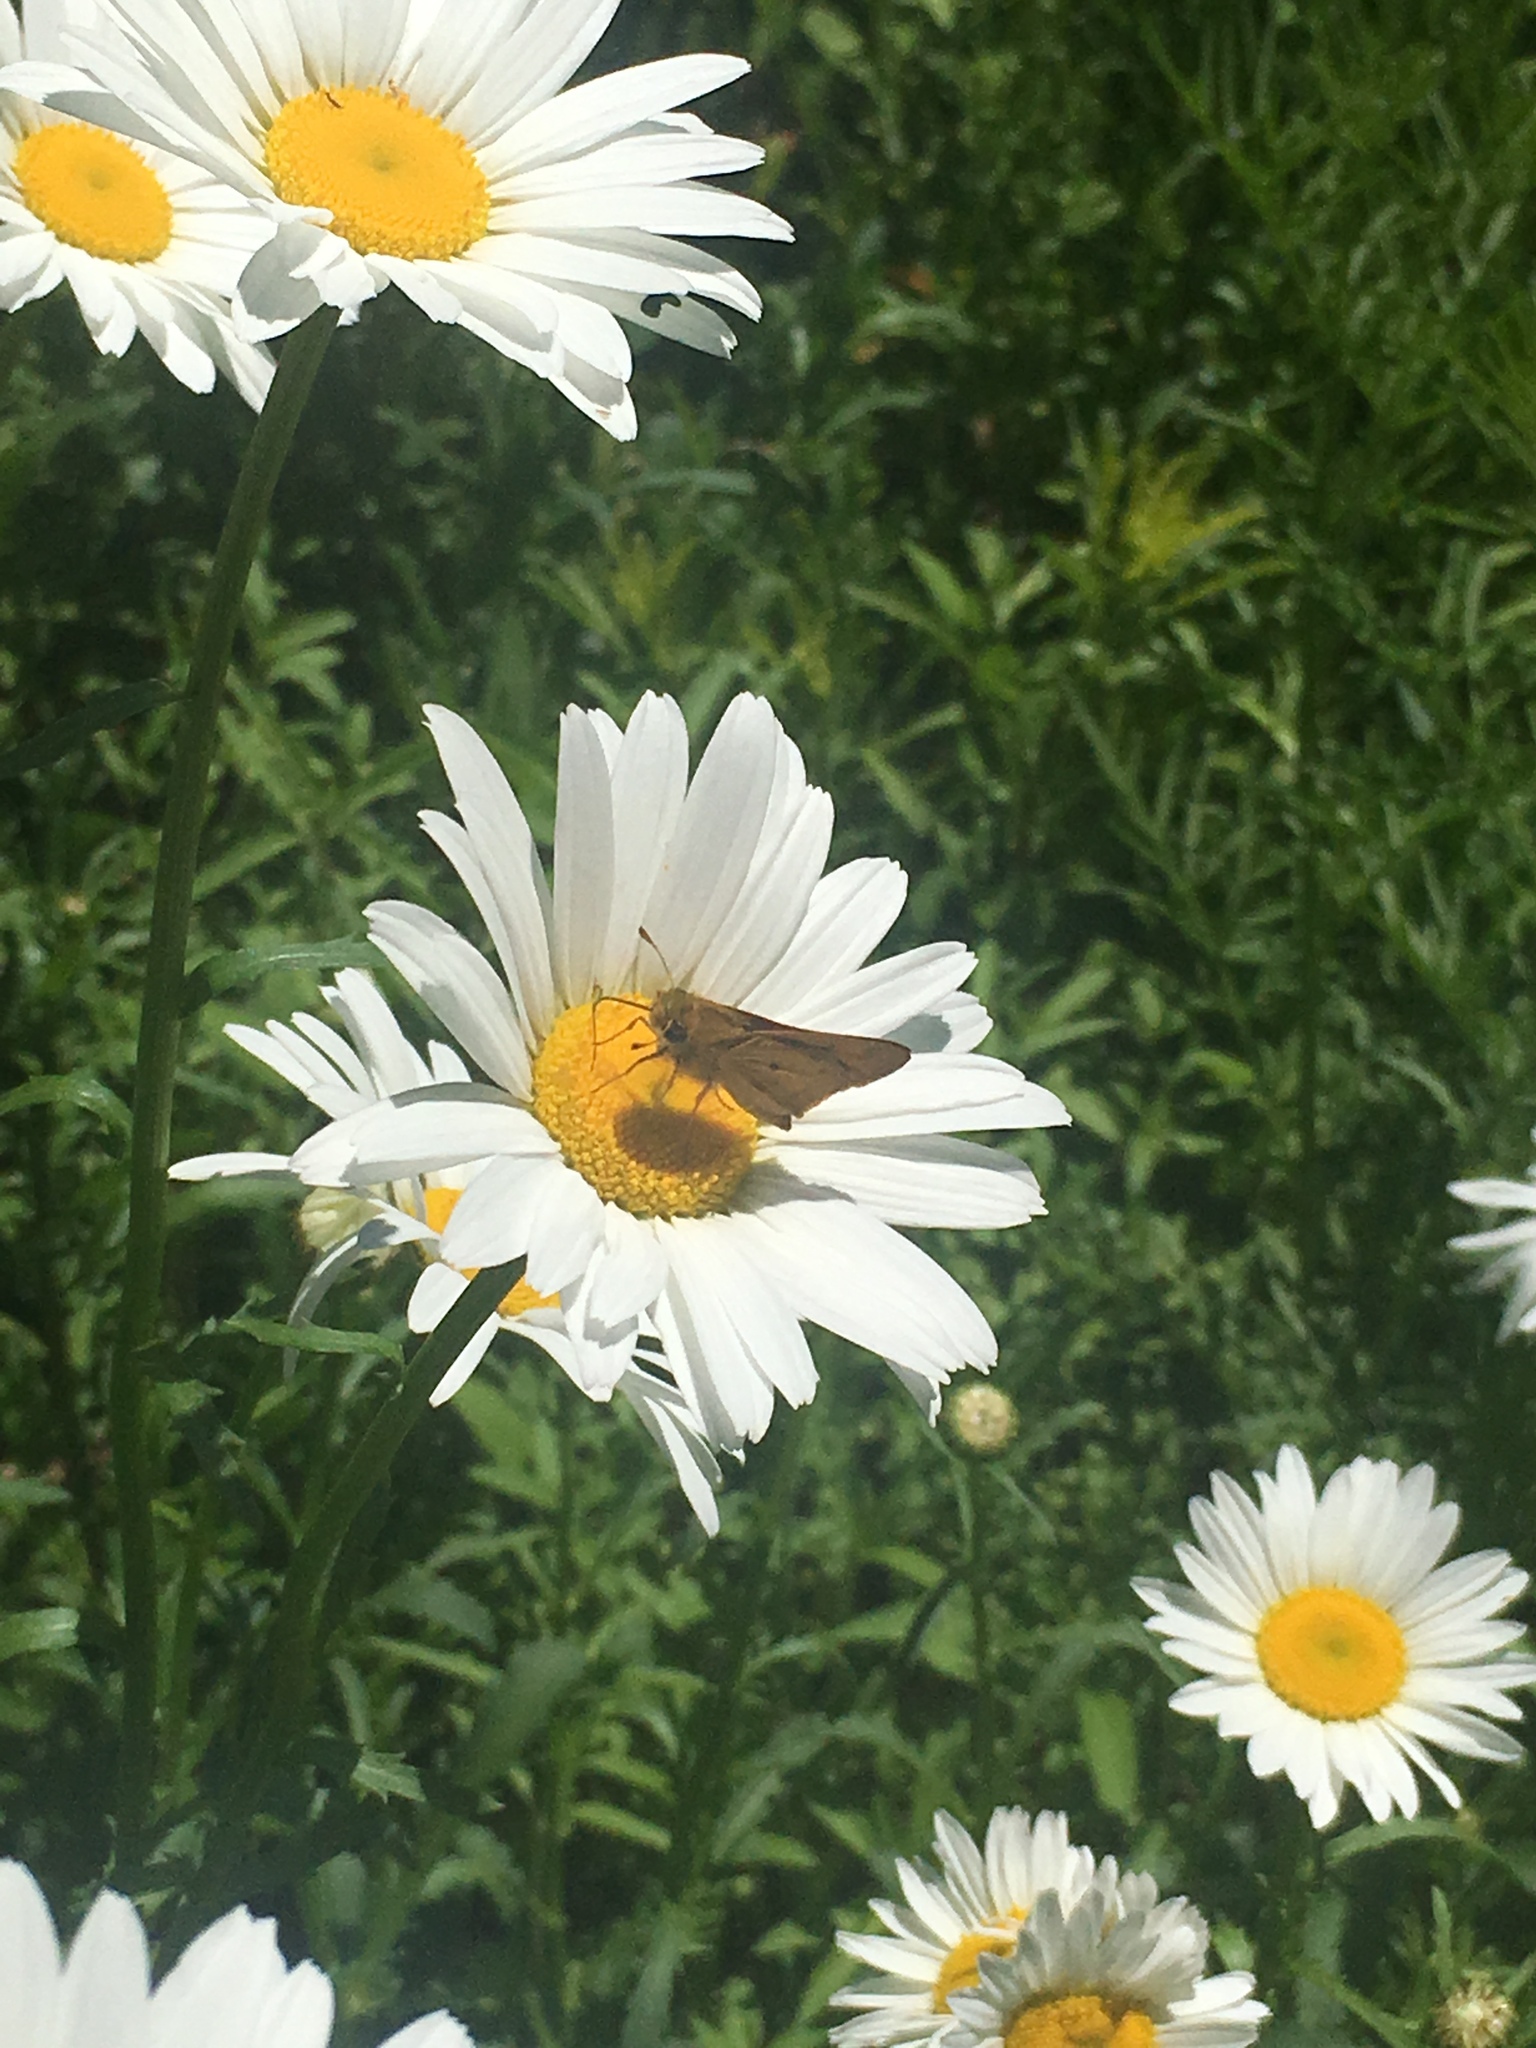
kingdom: Animalia
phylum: Arthropoda
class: Insecta
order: Lepidoptera
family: Hesperiidae
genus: Atalopedes
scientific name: Atalopedes
